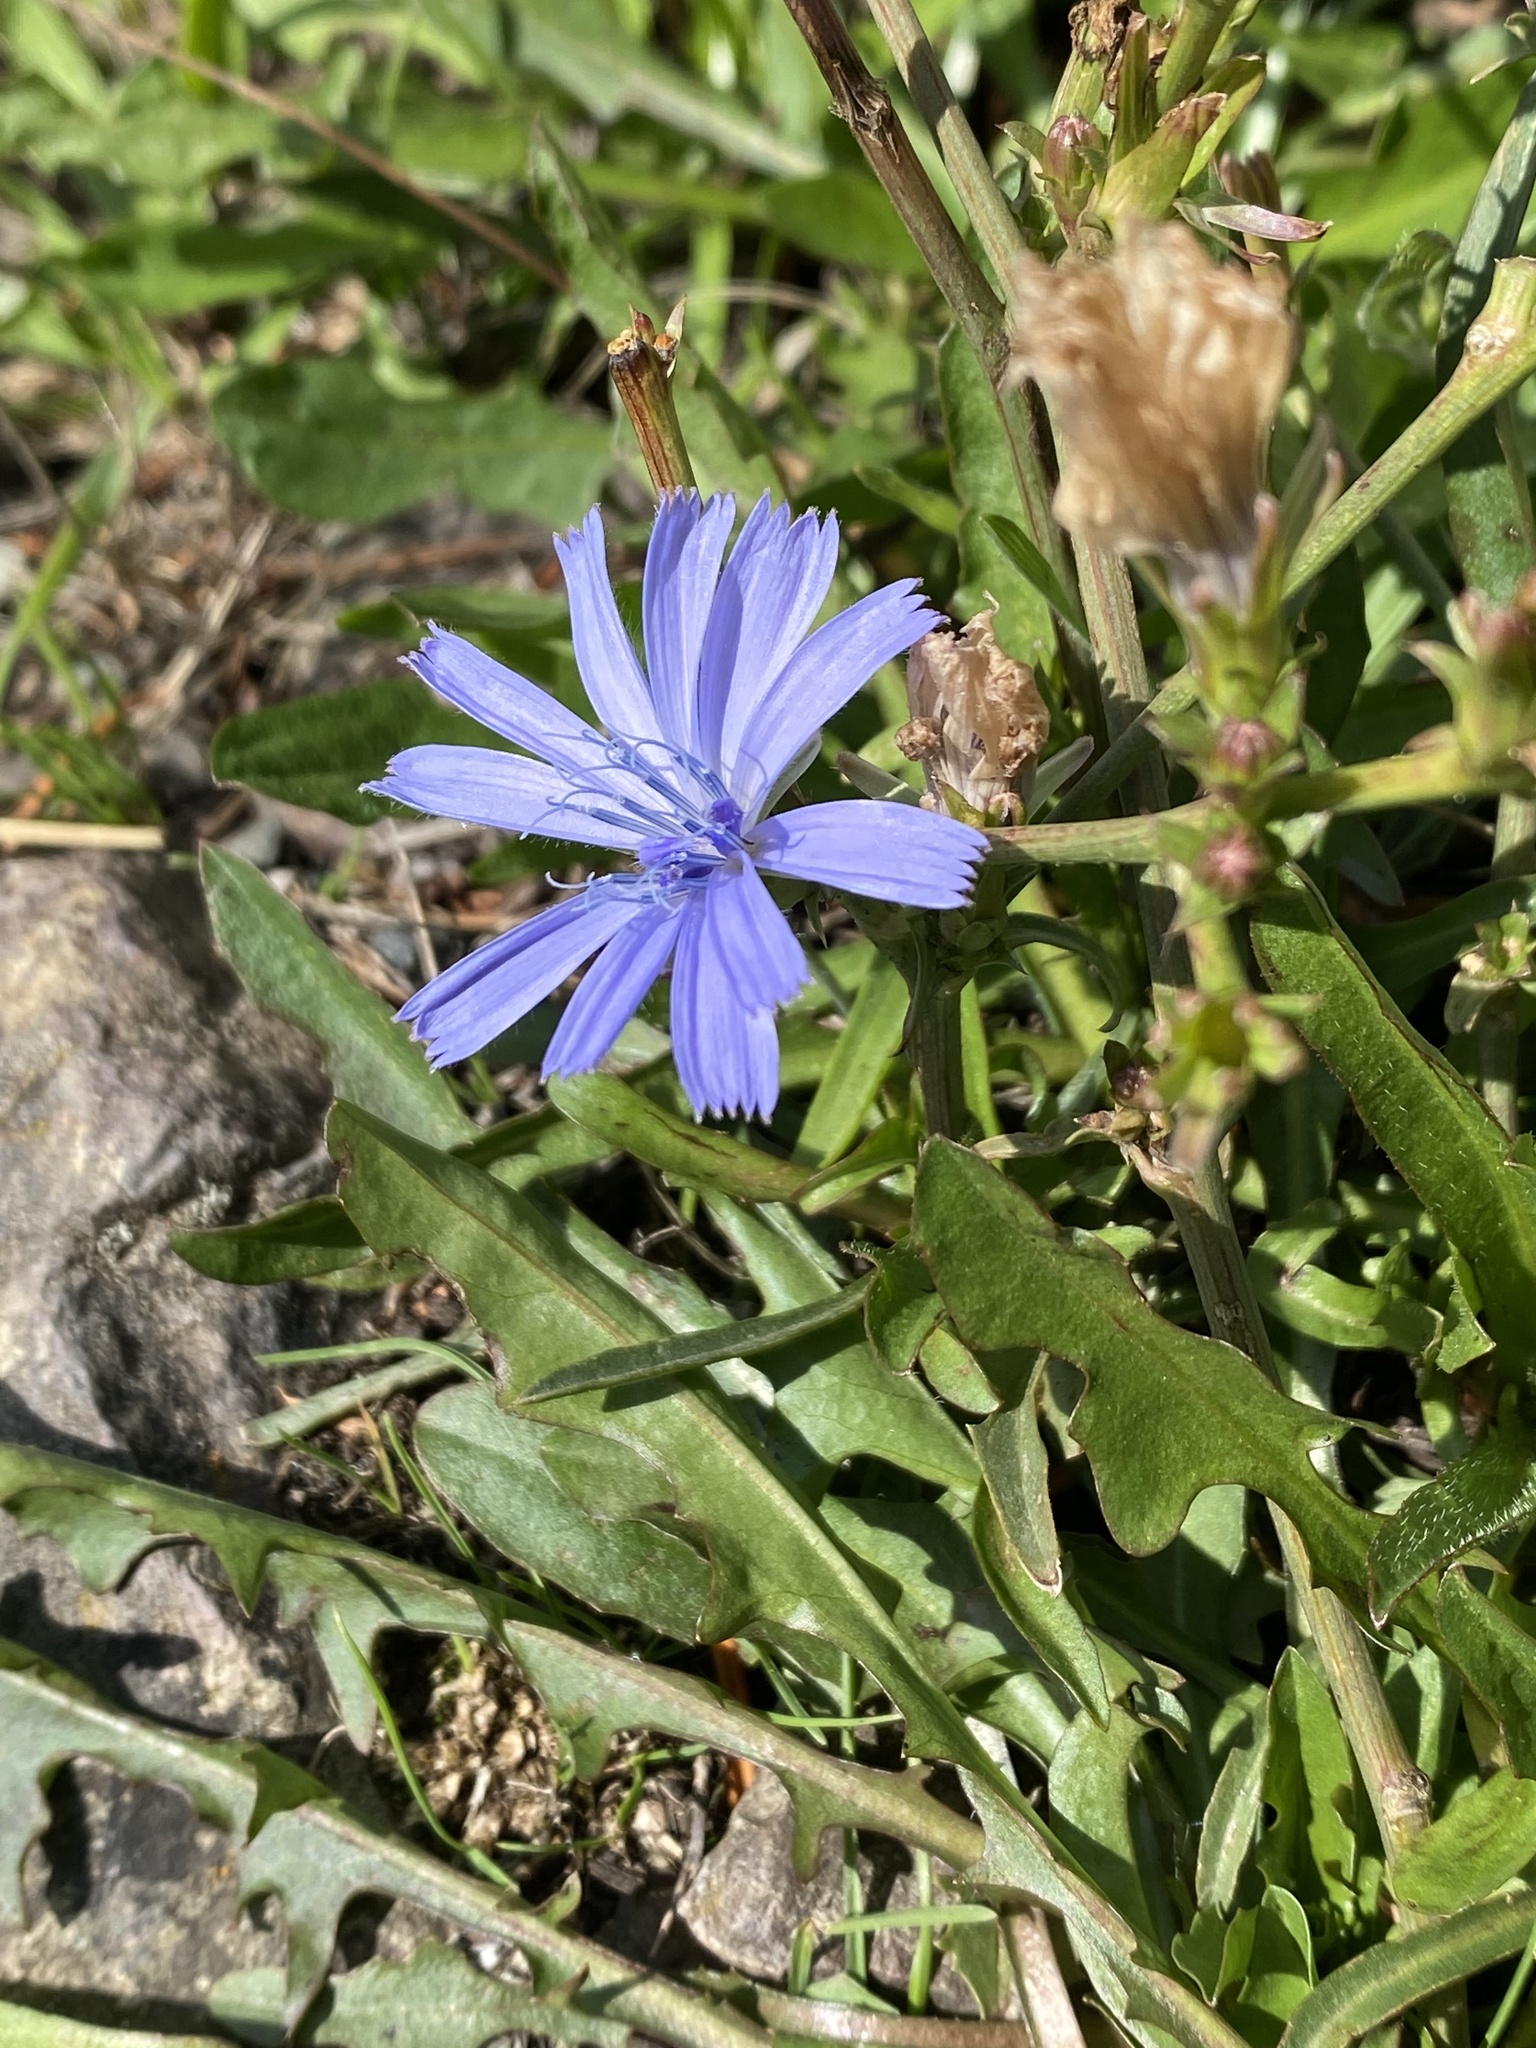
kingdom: Plantae
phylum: Tracheophyta
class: Magnoliopsida
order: Asterales
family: Asteraceae
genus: Cichorium
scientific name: Cichorium intybus
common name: Chicory
